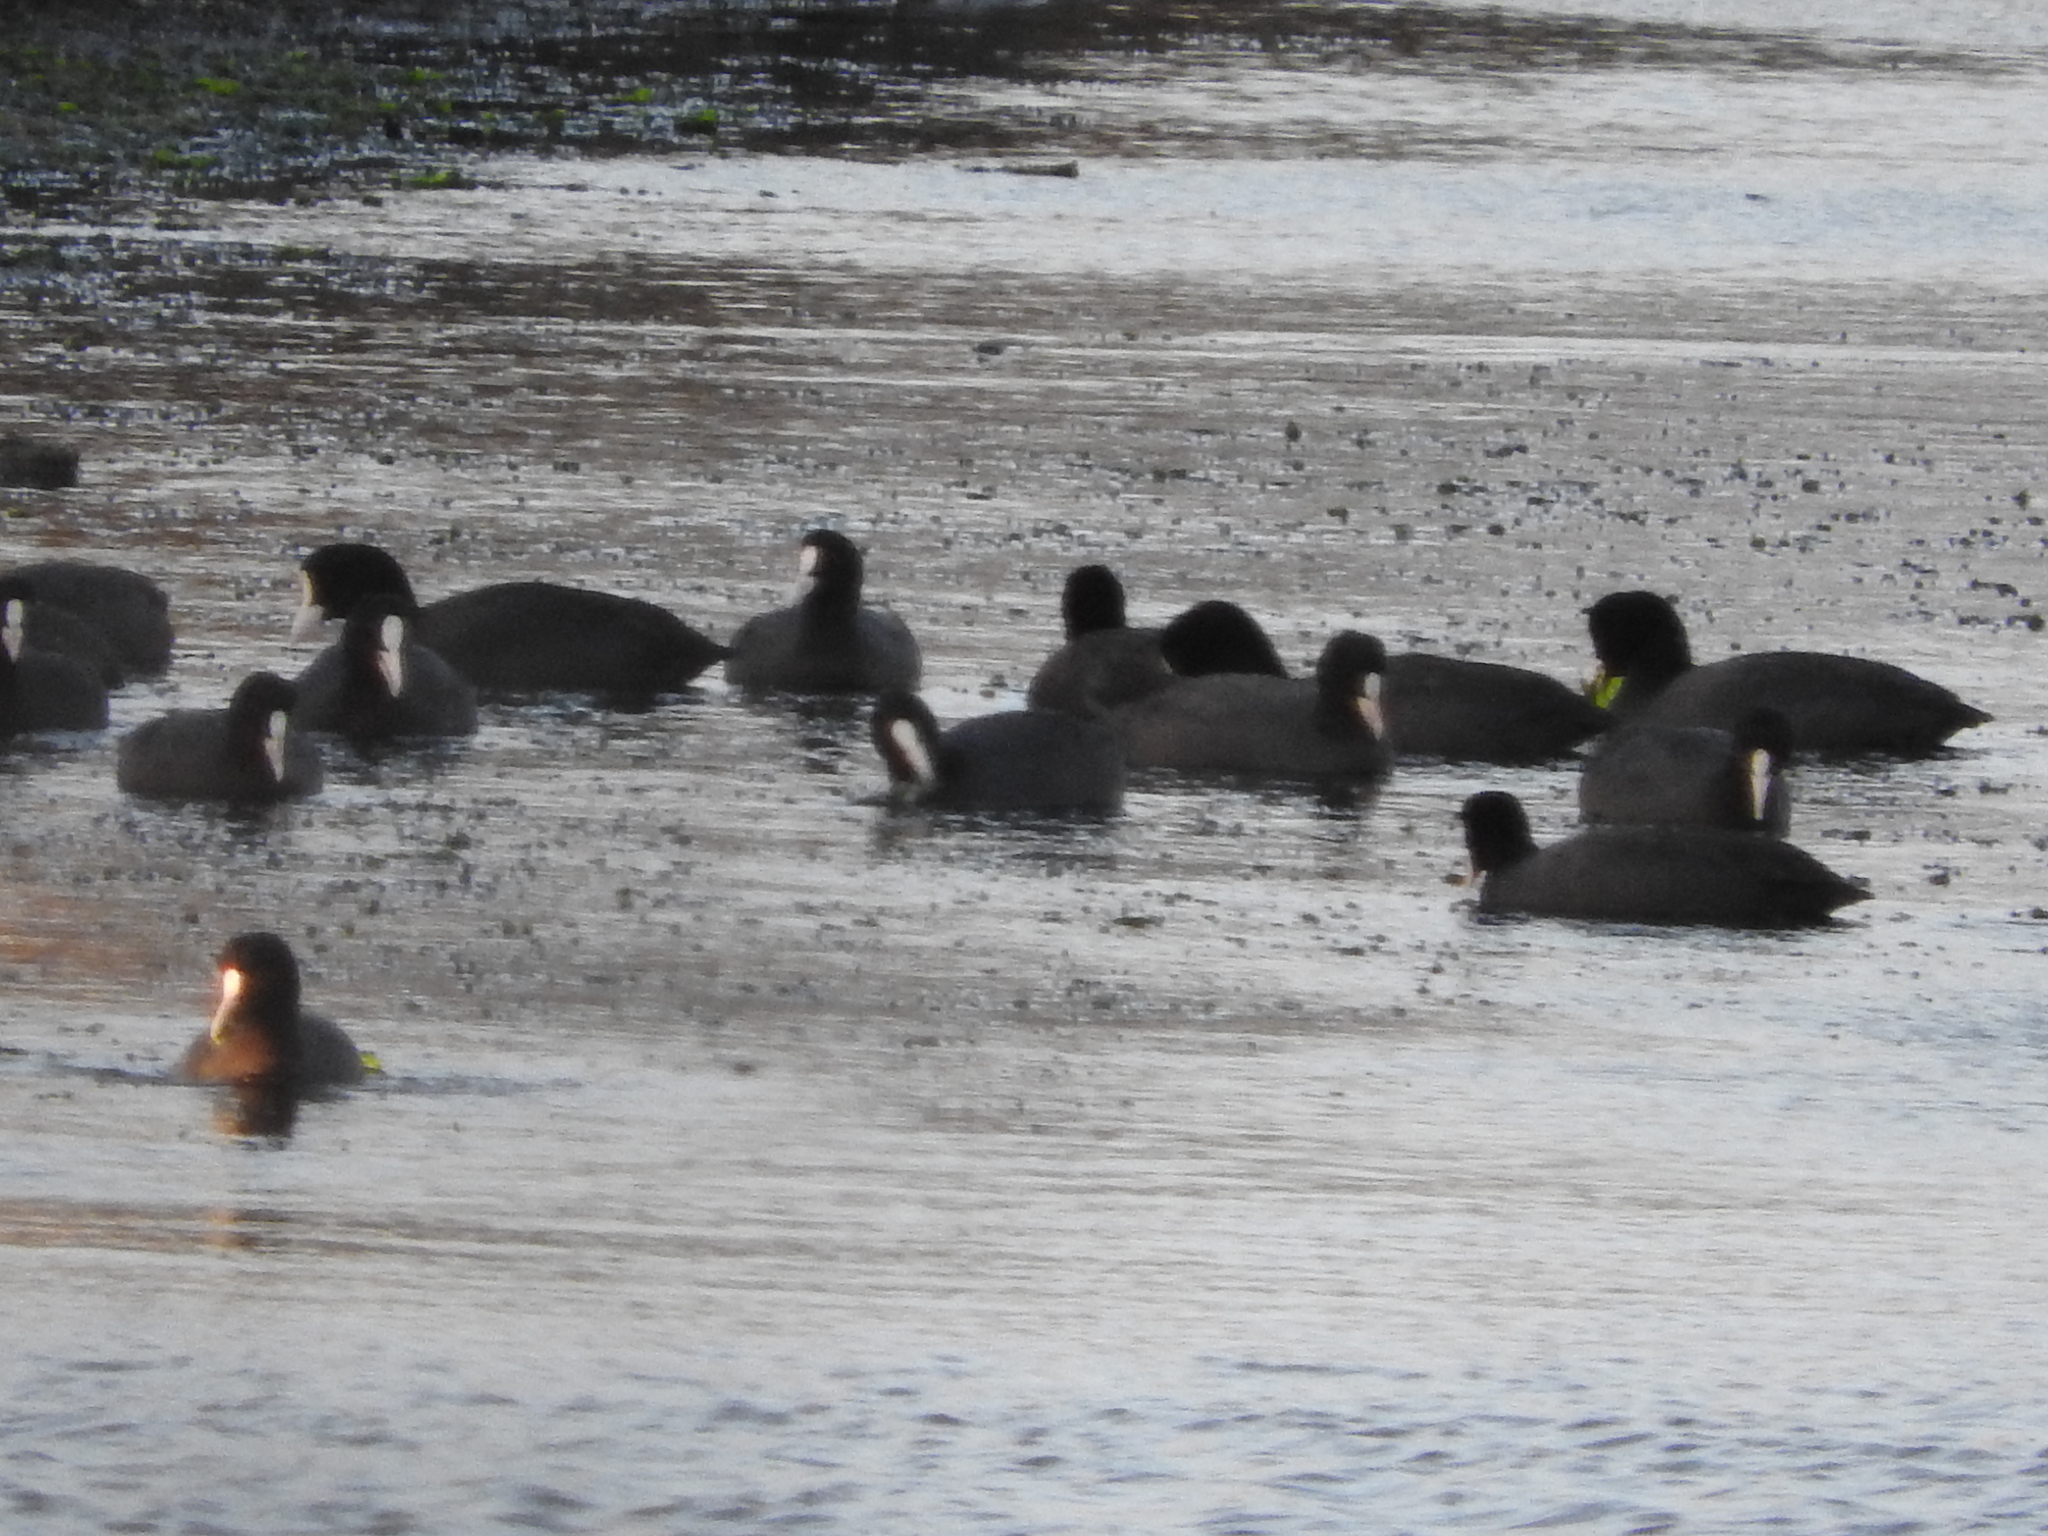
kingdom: Animalia
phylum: Chordata
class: Aves
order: Gruiformes
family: Rallidae
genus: Fulica
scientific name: Fulica atra
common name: Eurasian coot
